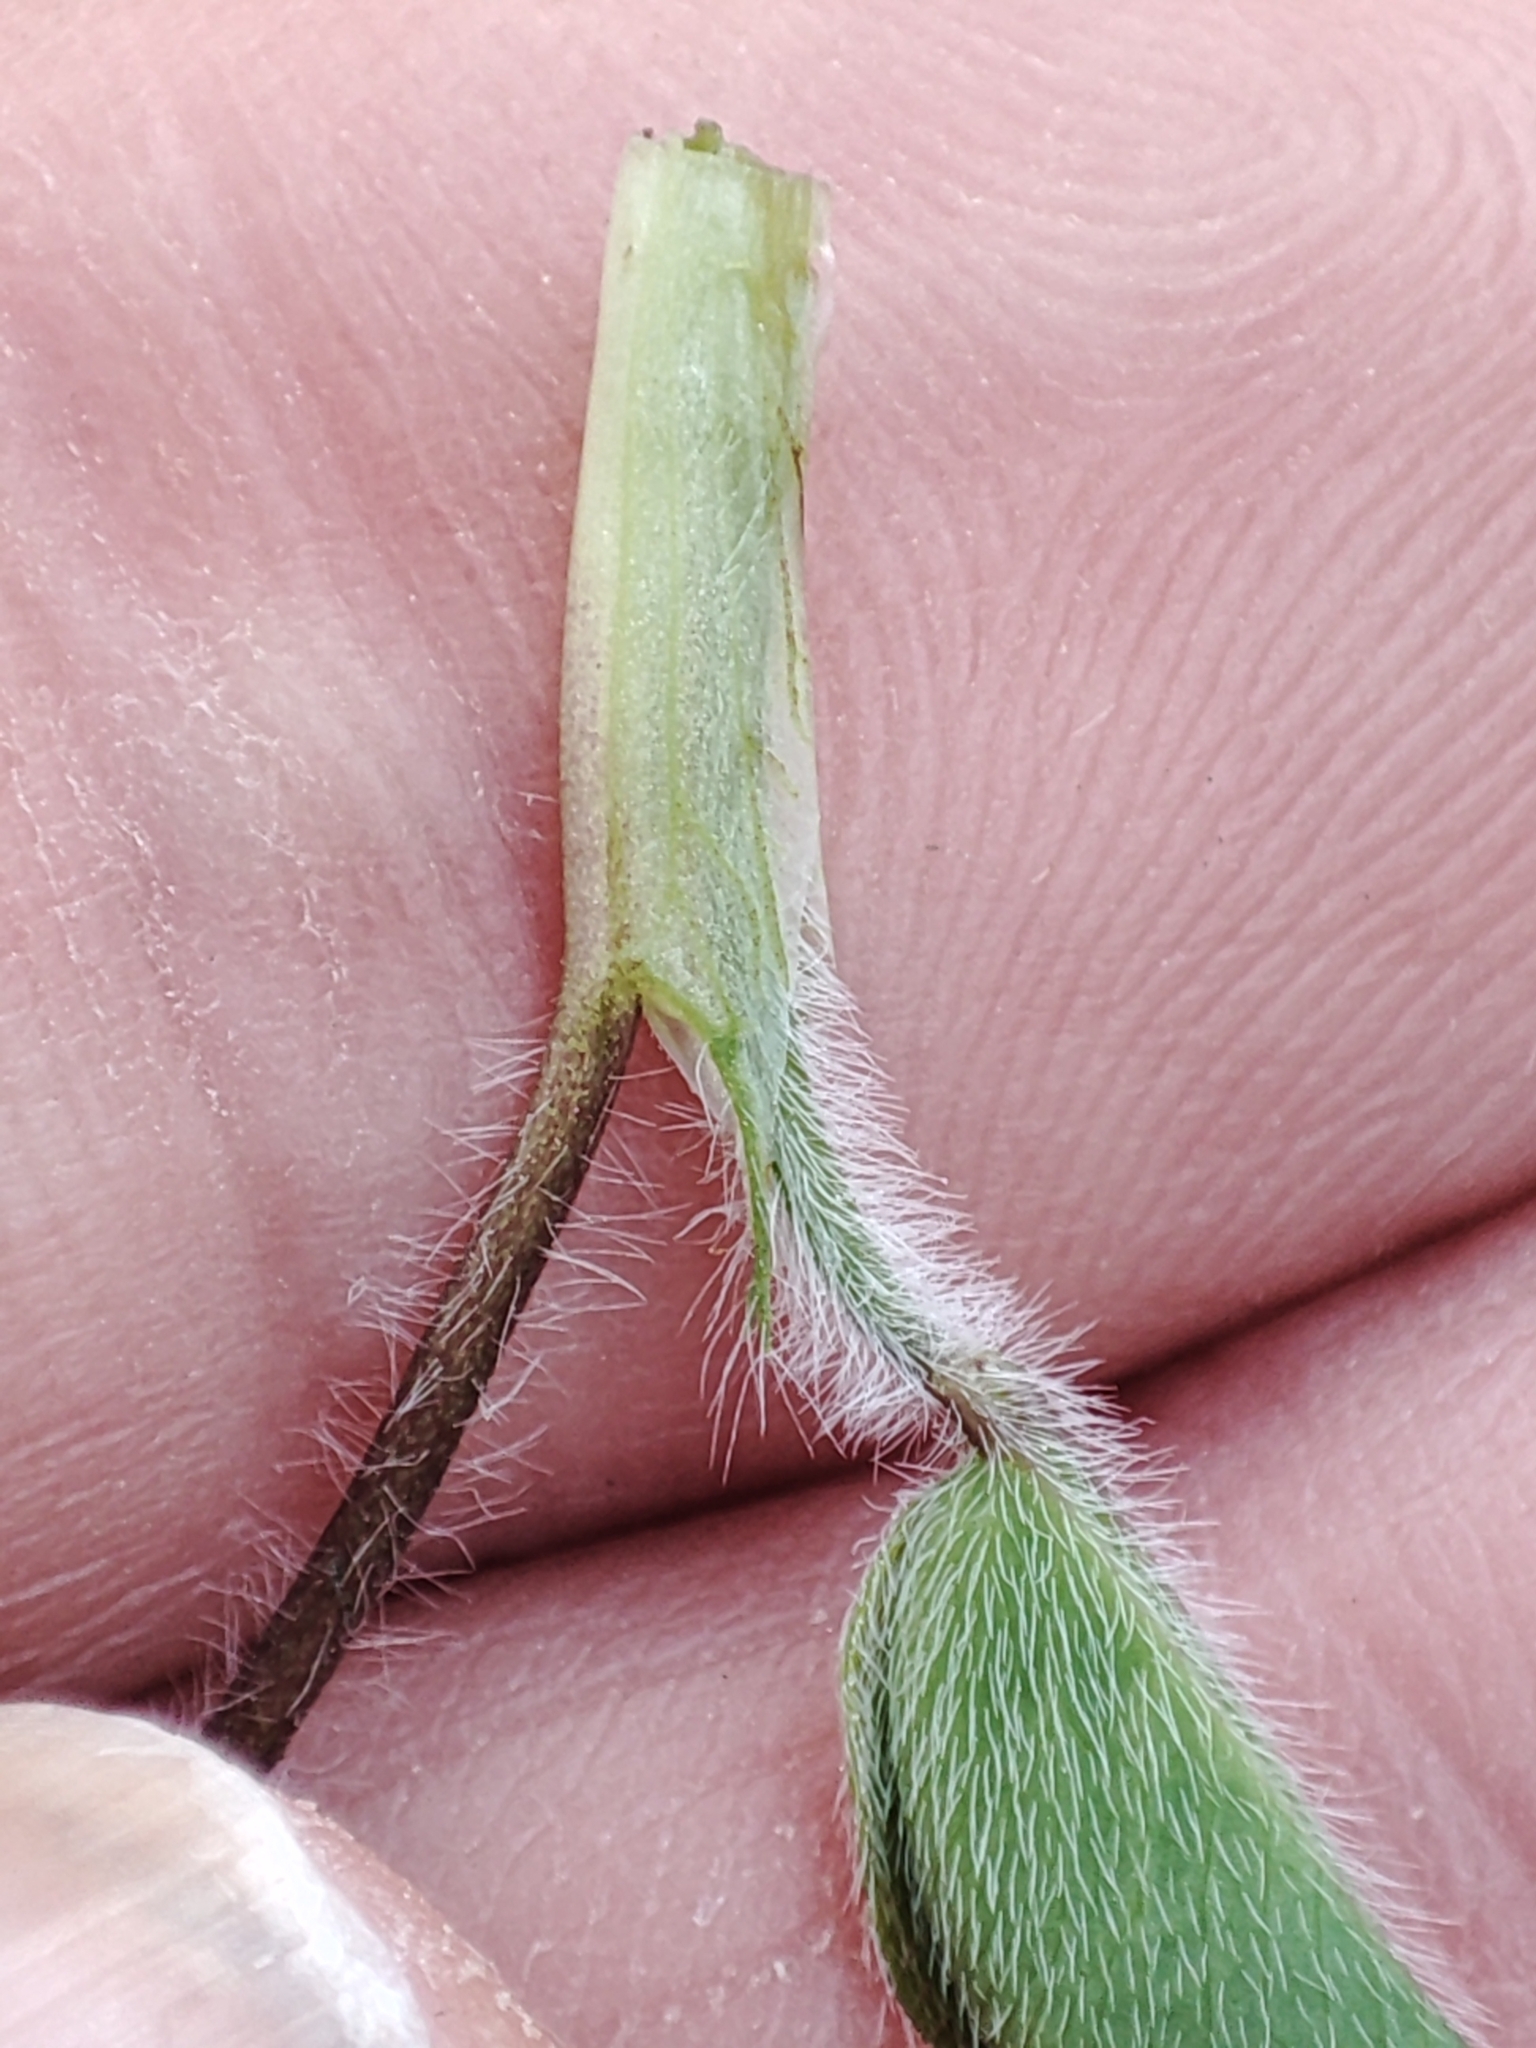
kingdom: Plantae
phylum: Tracheophyta
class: Magnoliopsida
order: Fabales
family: Fabaceae
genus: Trifolium
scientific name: Trifolium pratense
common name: Red clover
